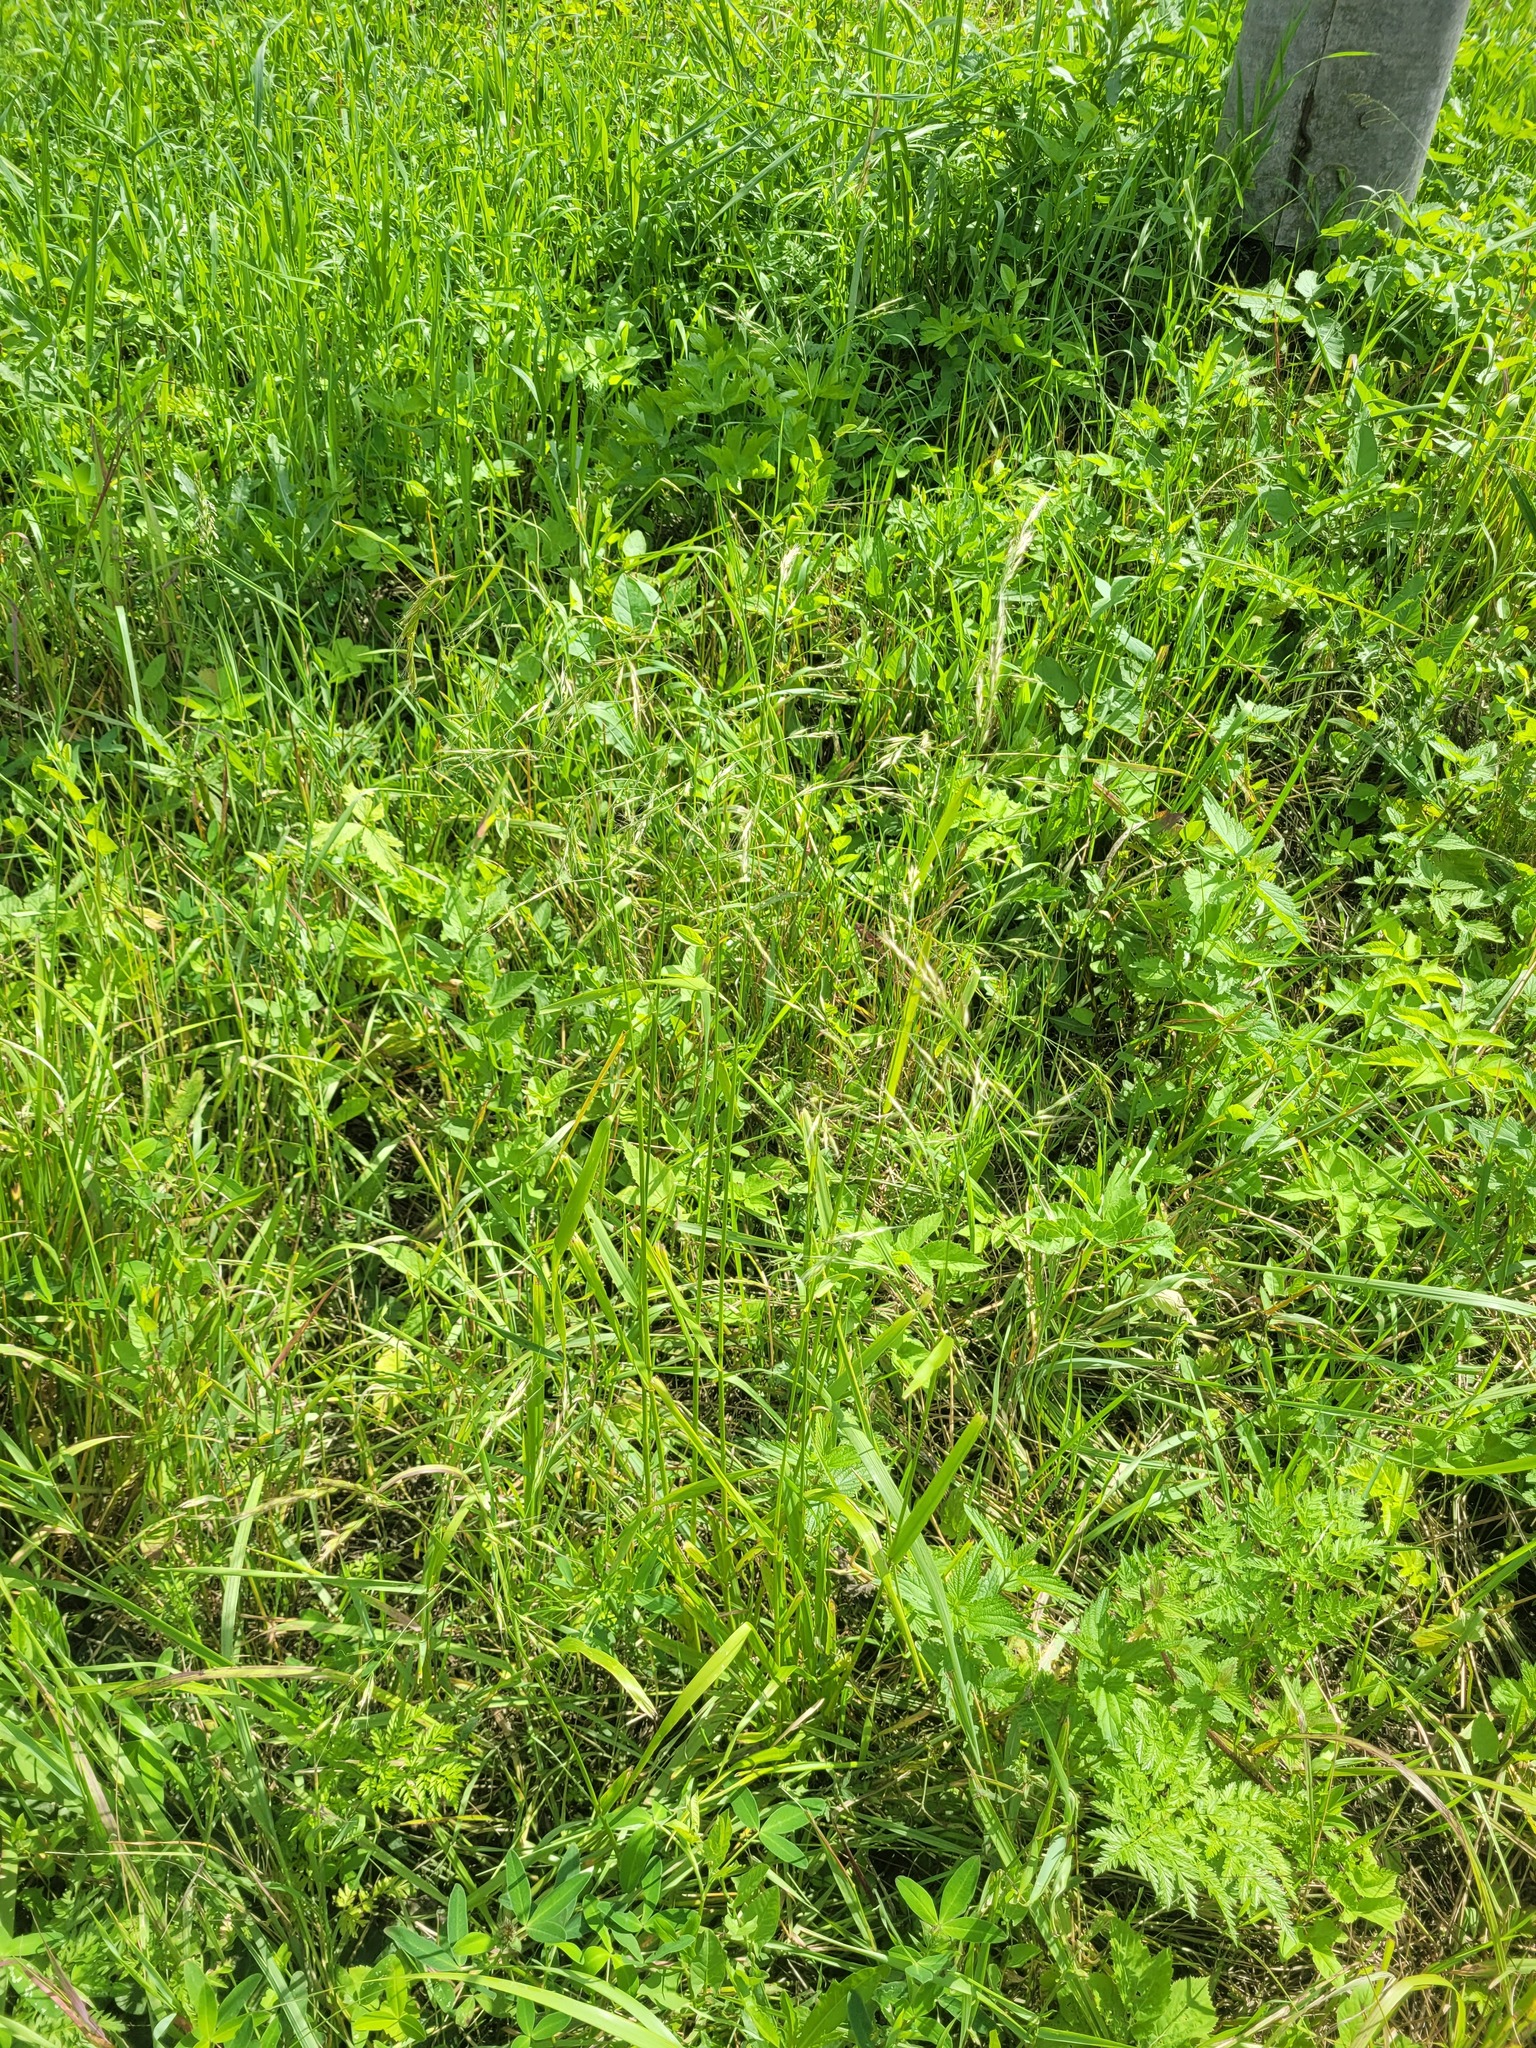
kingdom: Plantae
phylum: Tracheophyta
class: Liliopsida
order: Poales
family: Poaceae
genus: Lolium
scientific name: Lolium giganteum
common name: Giant fescue
